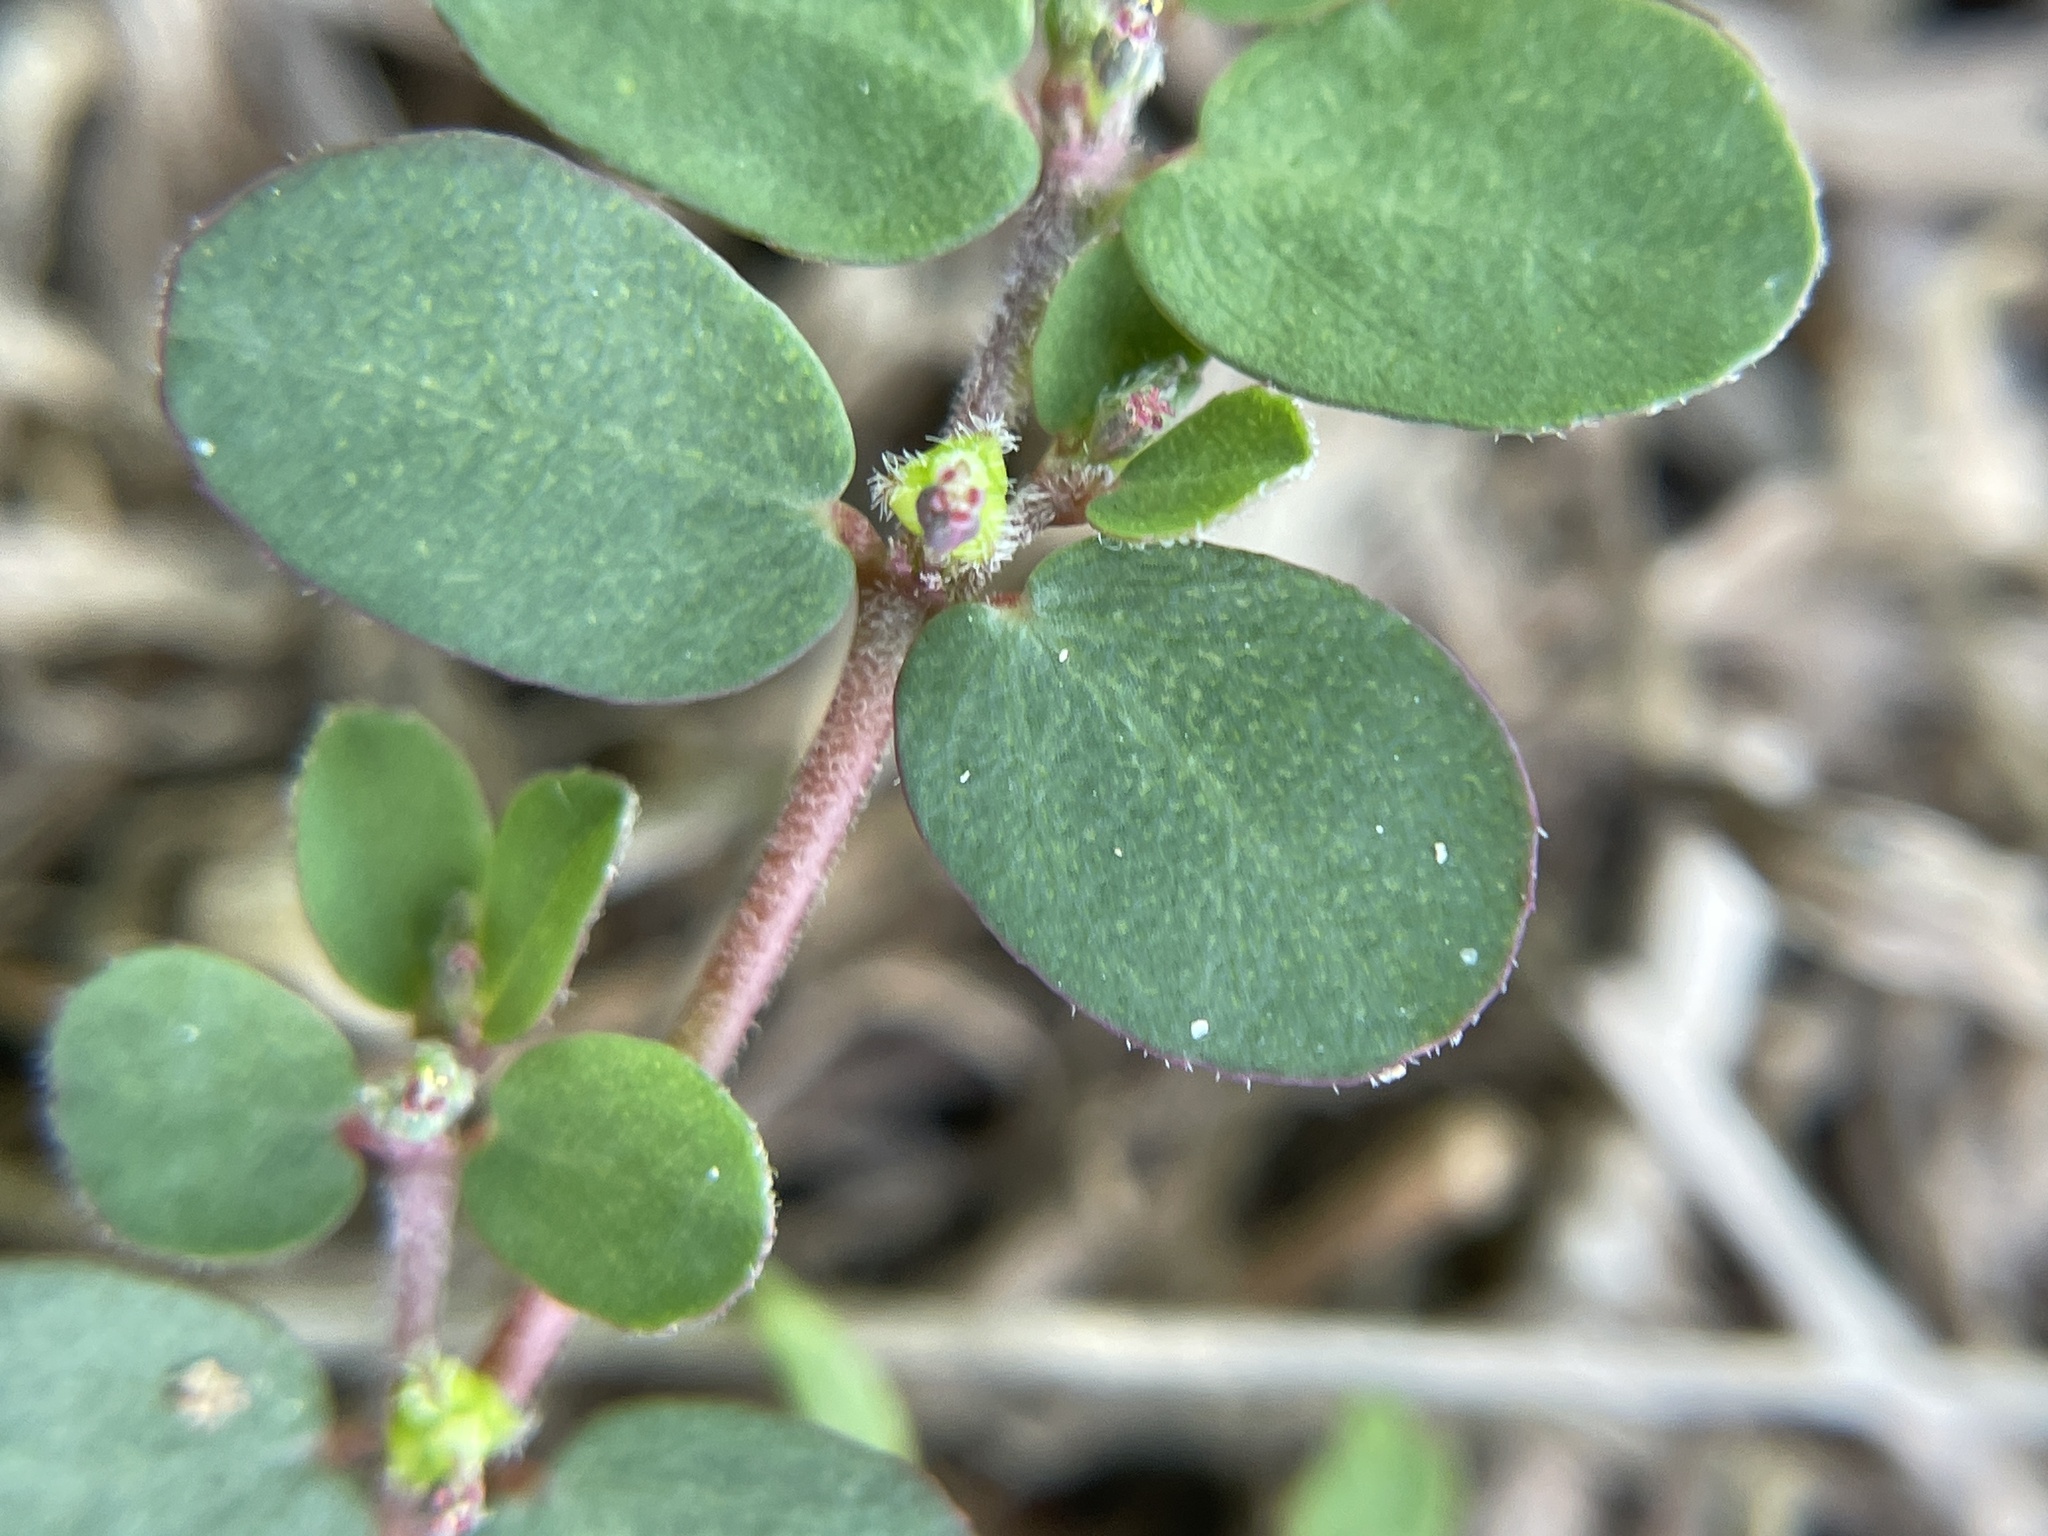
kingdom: Plantae
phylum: Tracheophyta
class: Magnoliopsida
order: Malpighiales
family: Euphorbiaceae
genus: Euphorbia
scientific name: Euphorbia prostrata
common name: Prostrate sandmat
